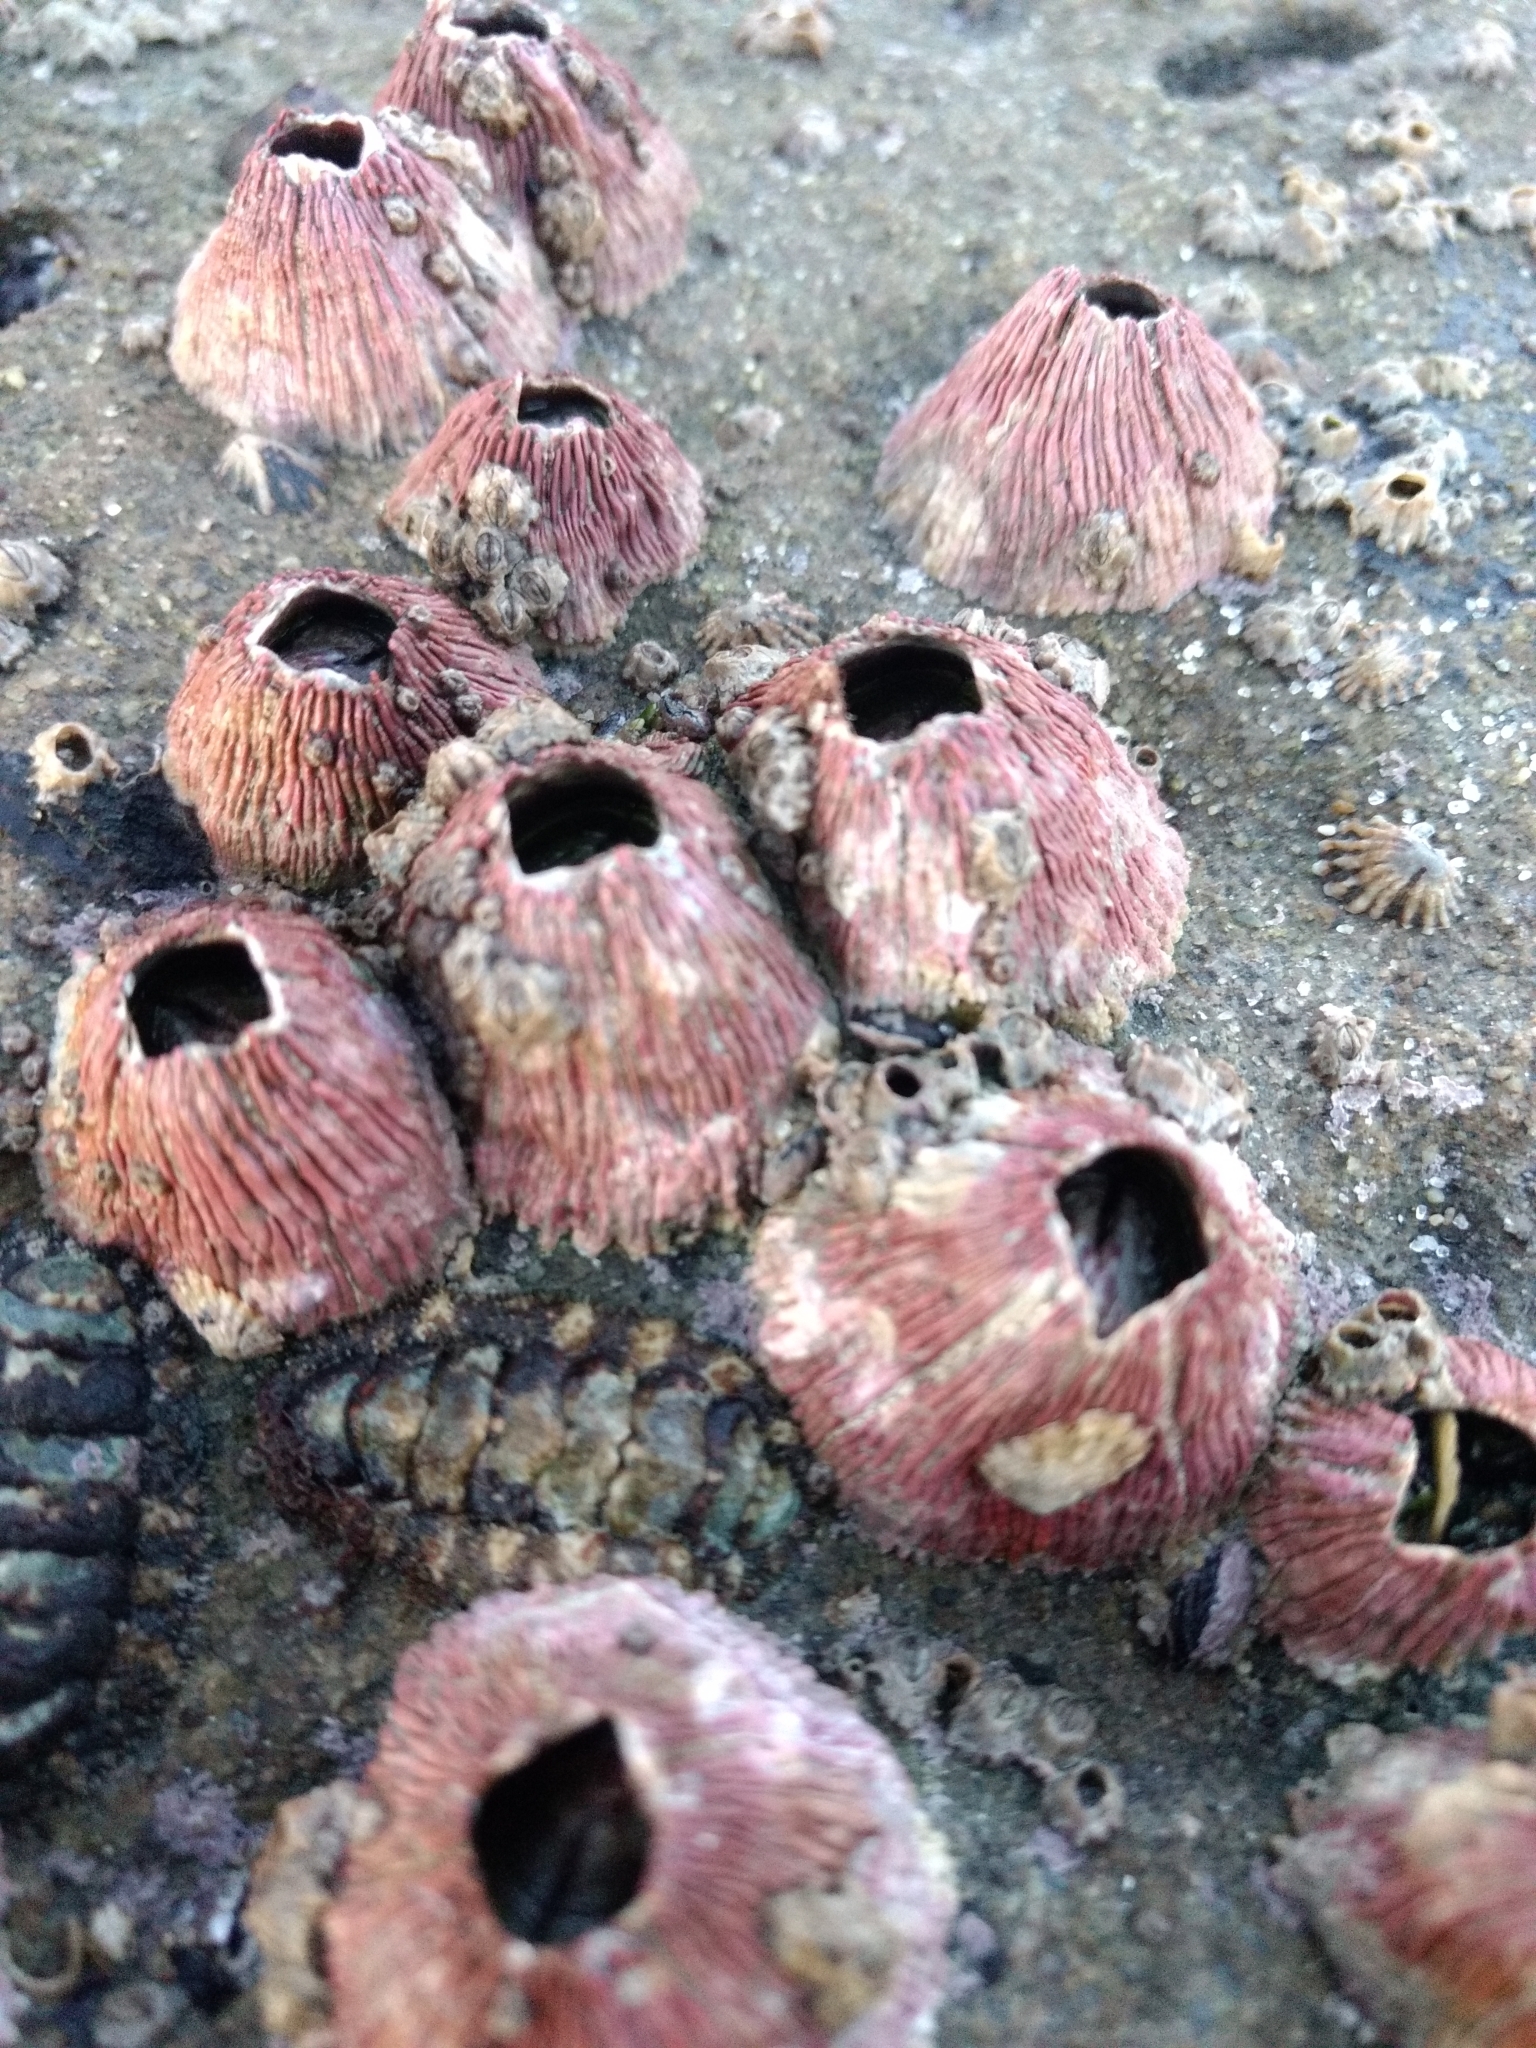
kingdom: Animalia
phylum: Arthropoda
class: Maxillopoda
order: Sessilia
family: Tetraclitidae
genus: Tetraclita
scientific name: Tetraclita rubescens
